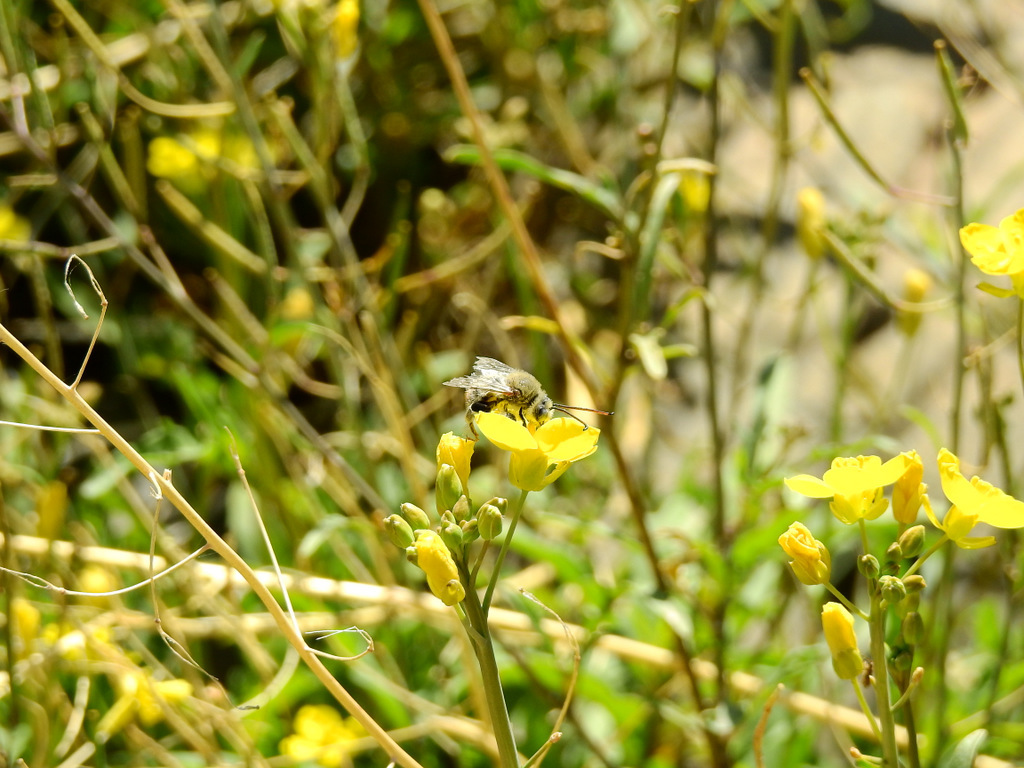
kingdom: Plantae
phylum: Tracheophyta
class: Magnoliopsida
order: Brassicales
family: Brassicaceae
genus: Diplotaxis
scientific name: Diplotaxis tenuifolia
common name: Perennial wall-rocket
